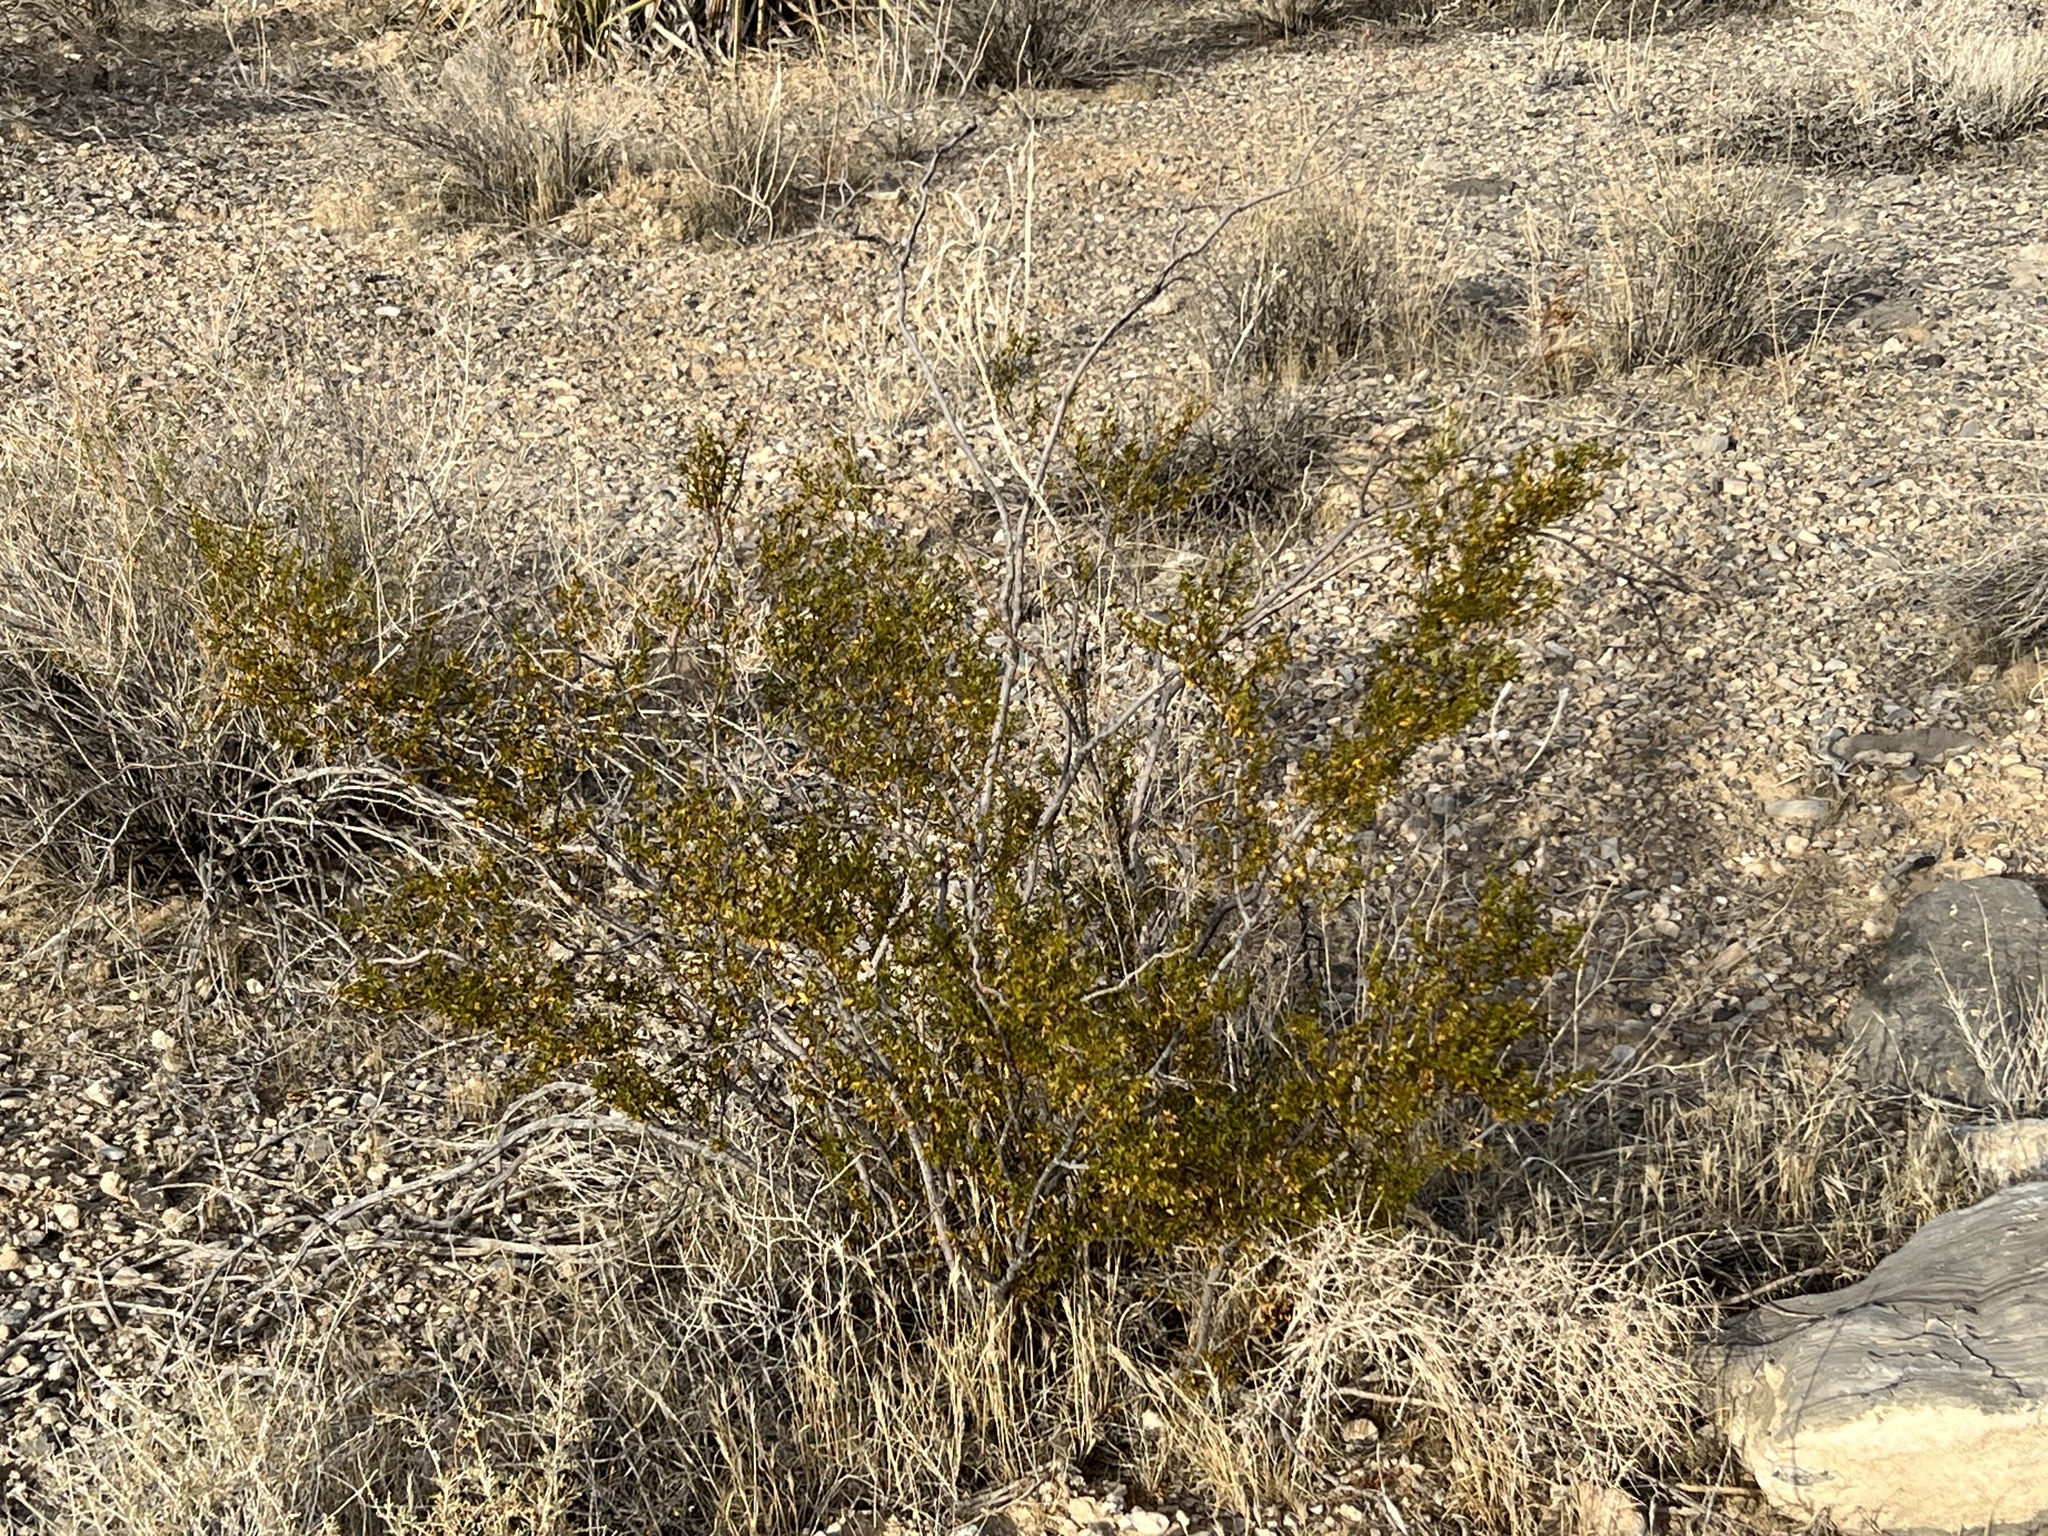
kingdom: Plantae
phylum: Tracheophyta
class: Magnoliopsida
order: Zygophyllales
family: Zygophyllaceae
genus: Larrea
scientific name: Larrea tridentata
